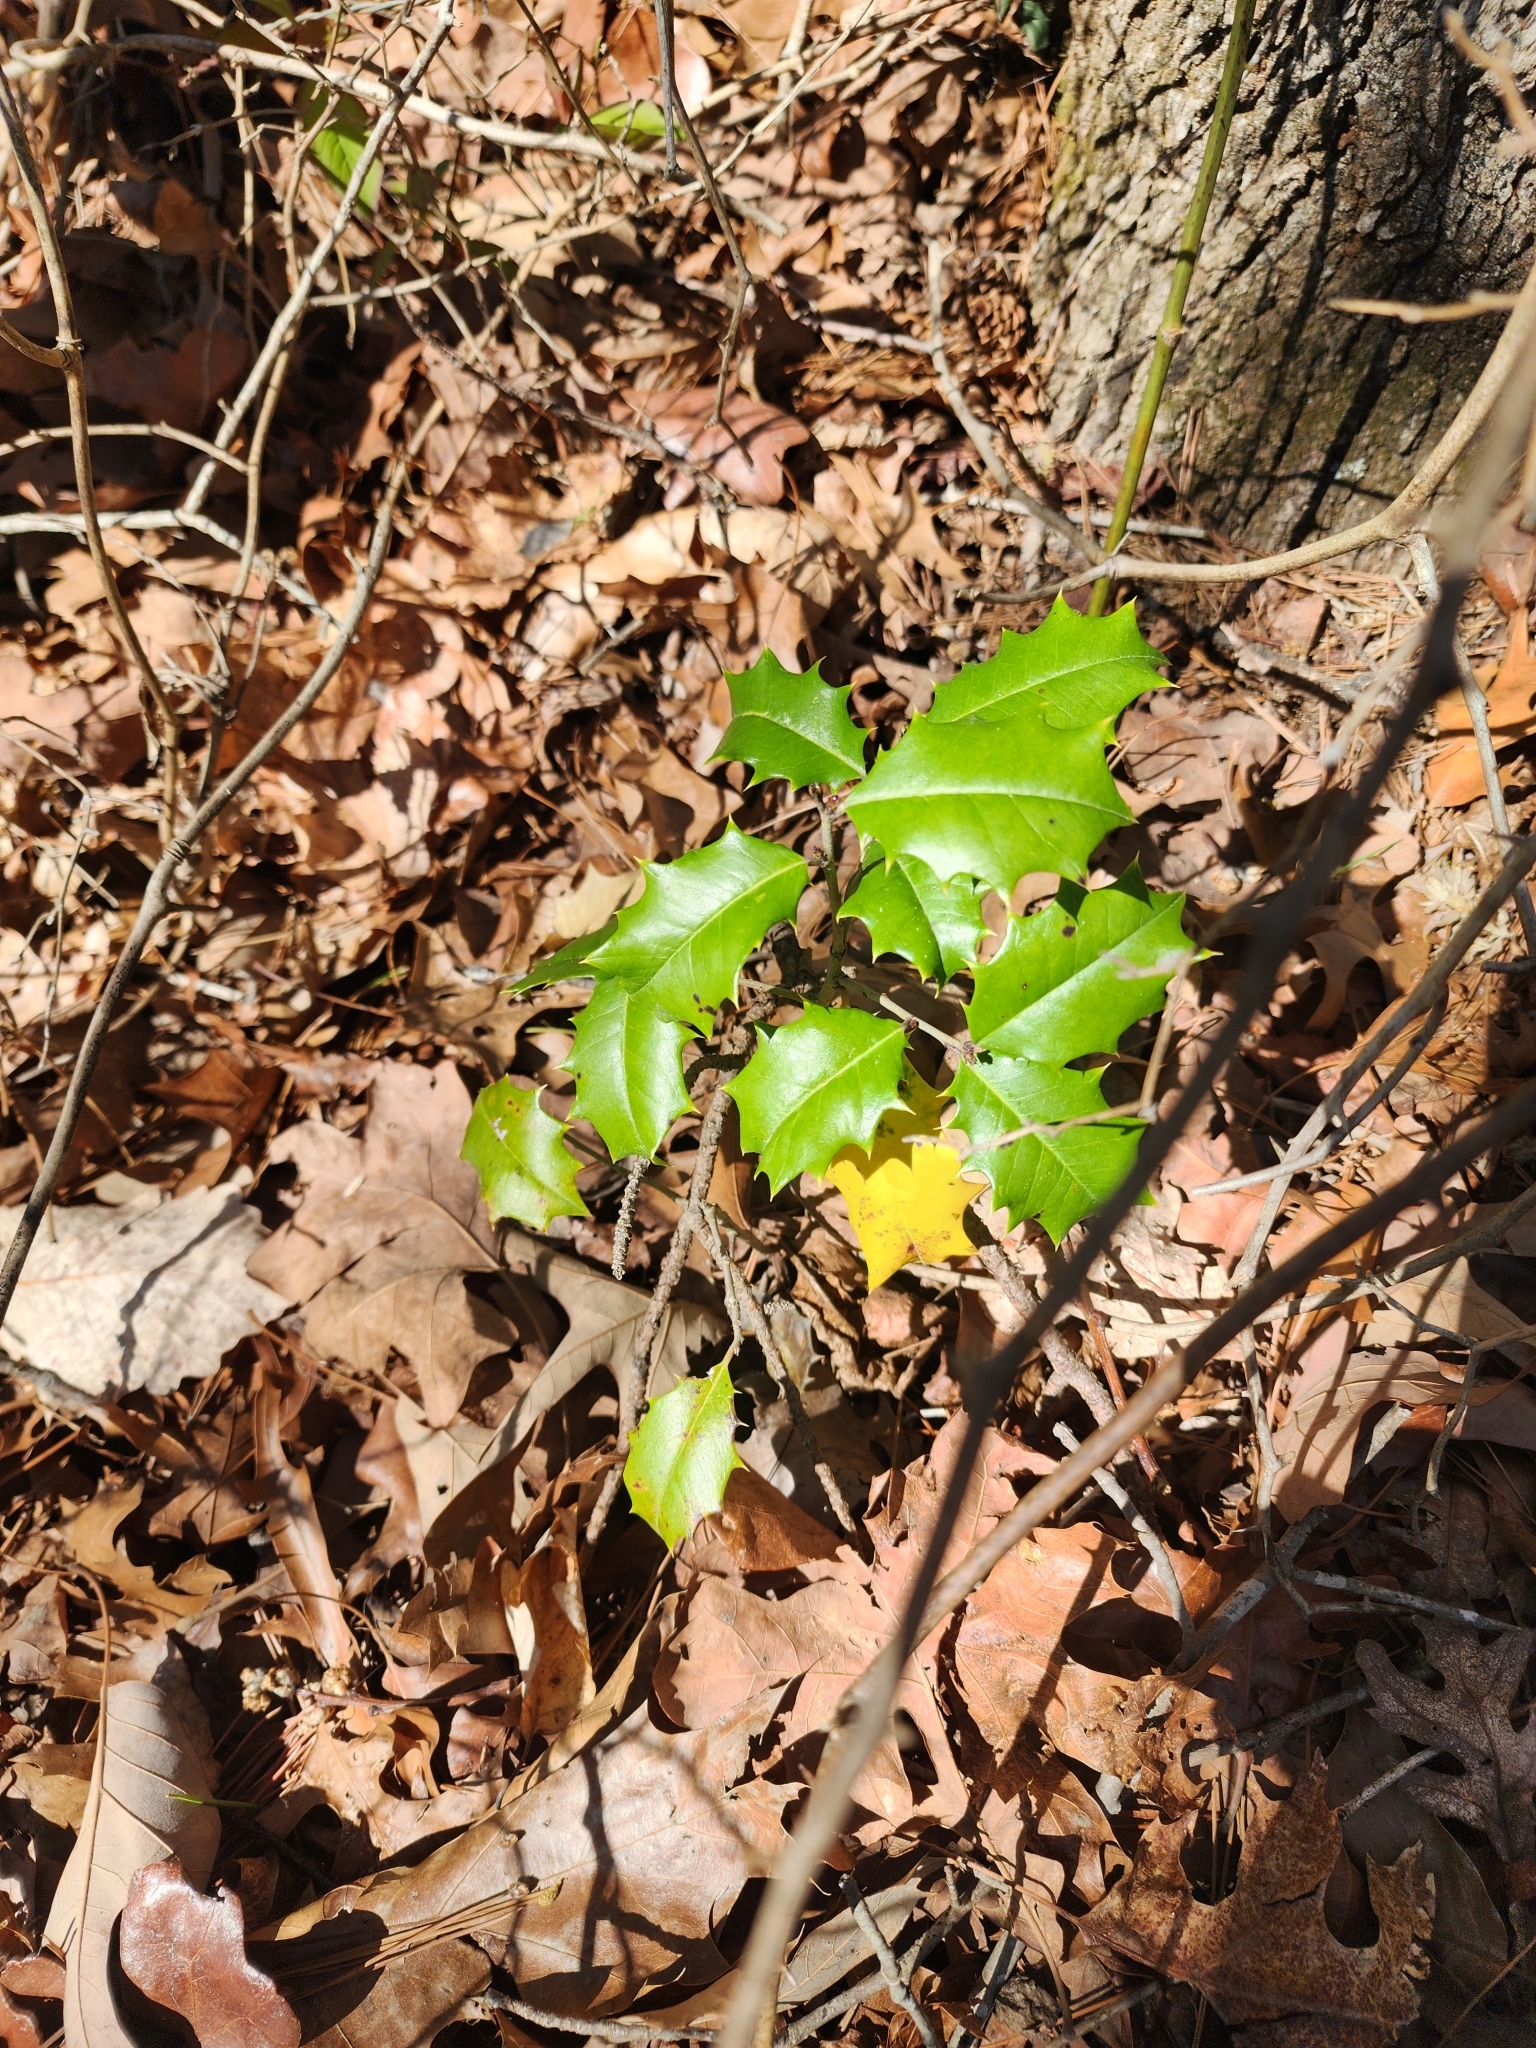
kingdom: Plantae
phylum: Tracheophyta
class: Magnoliopsida
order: Aquifoliales
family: Aquifoliaceae
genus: Ilex
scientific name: Ilex opaca
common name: American holly
